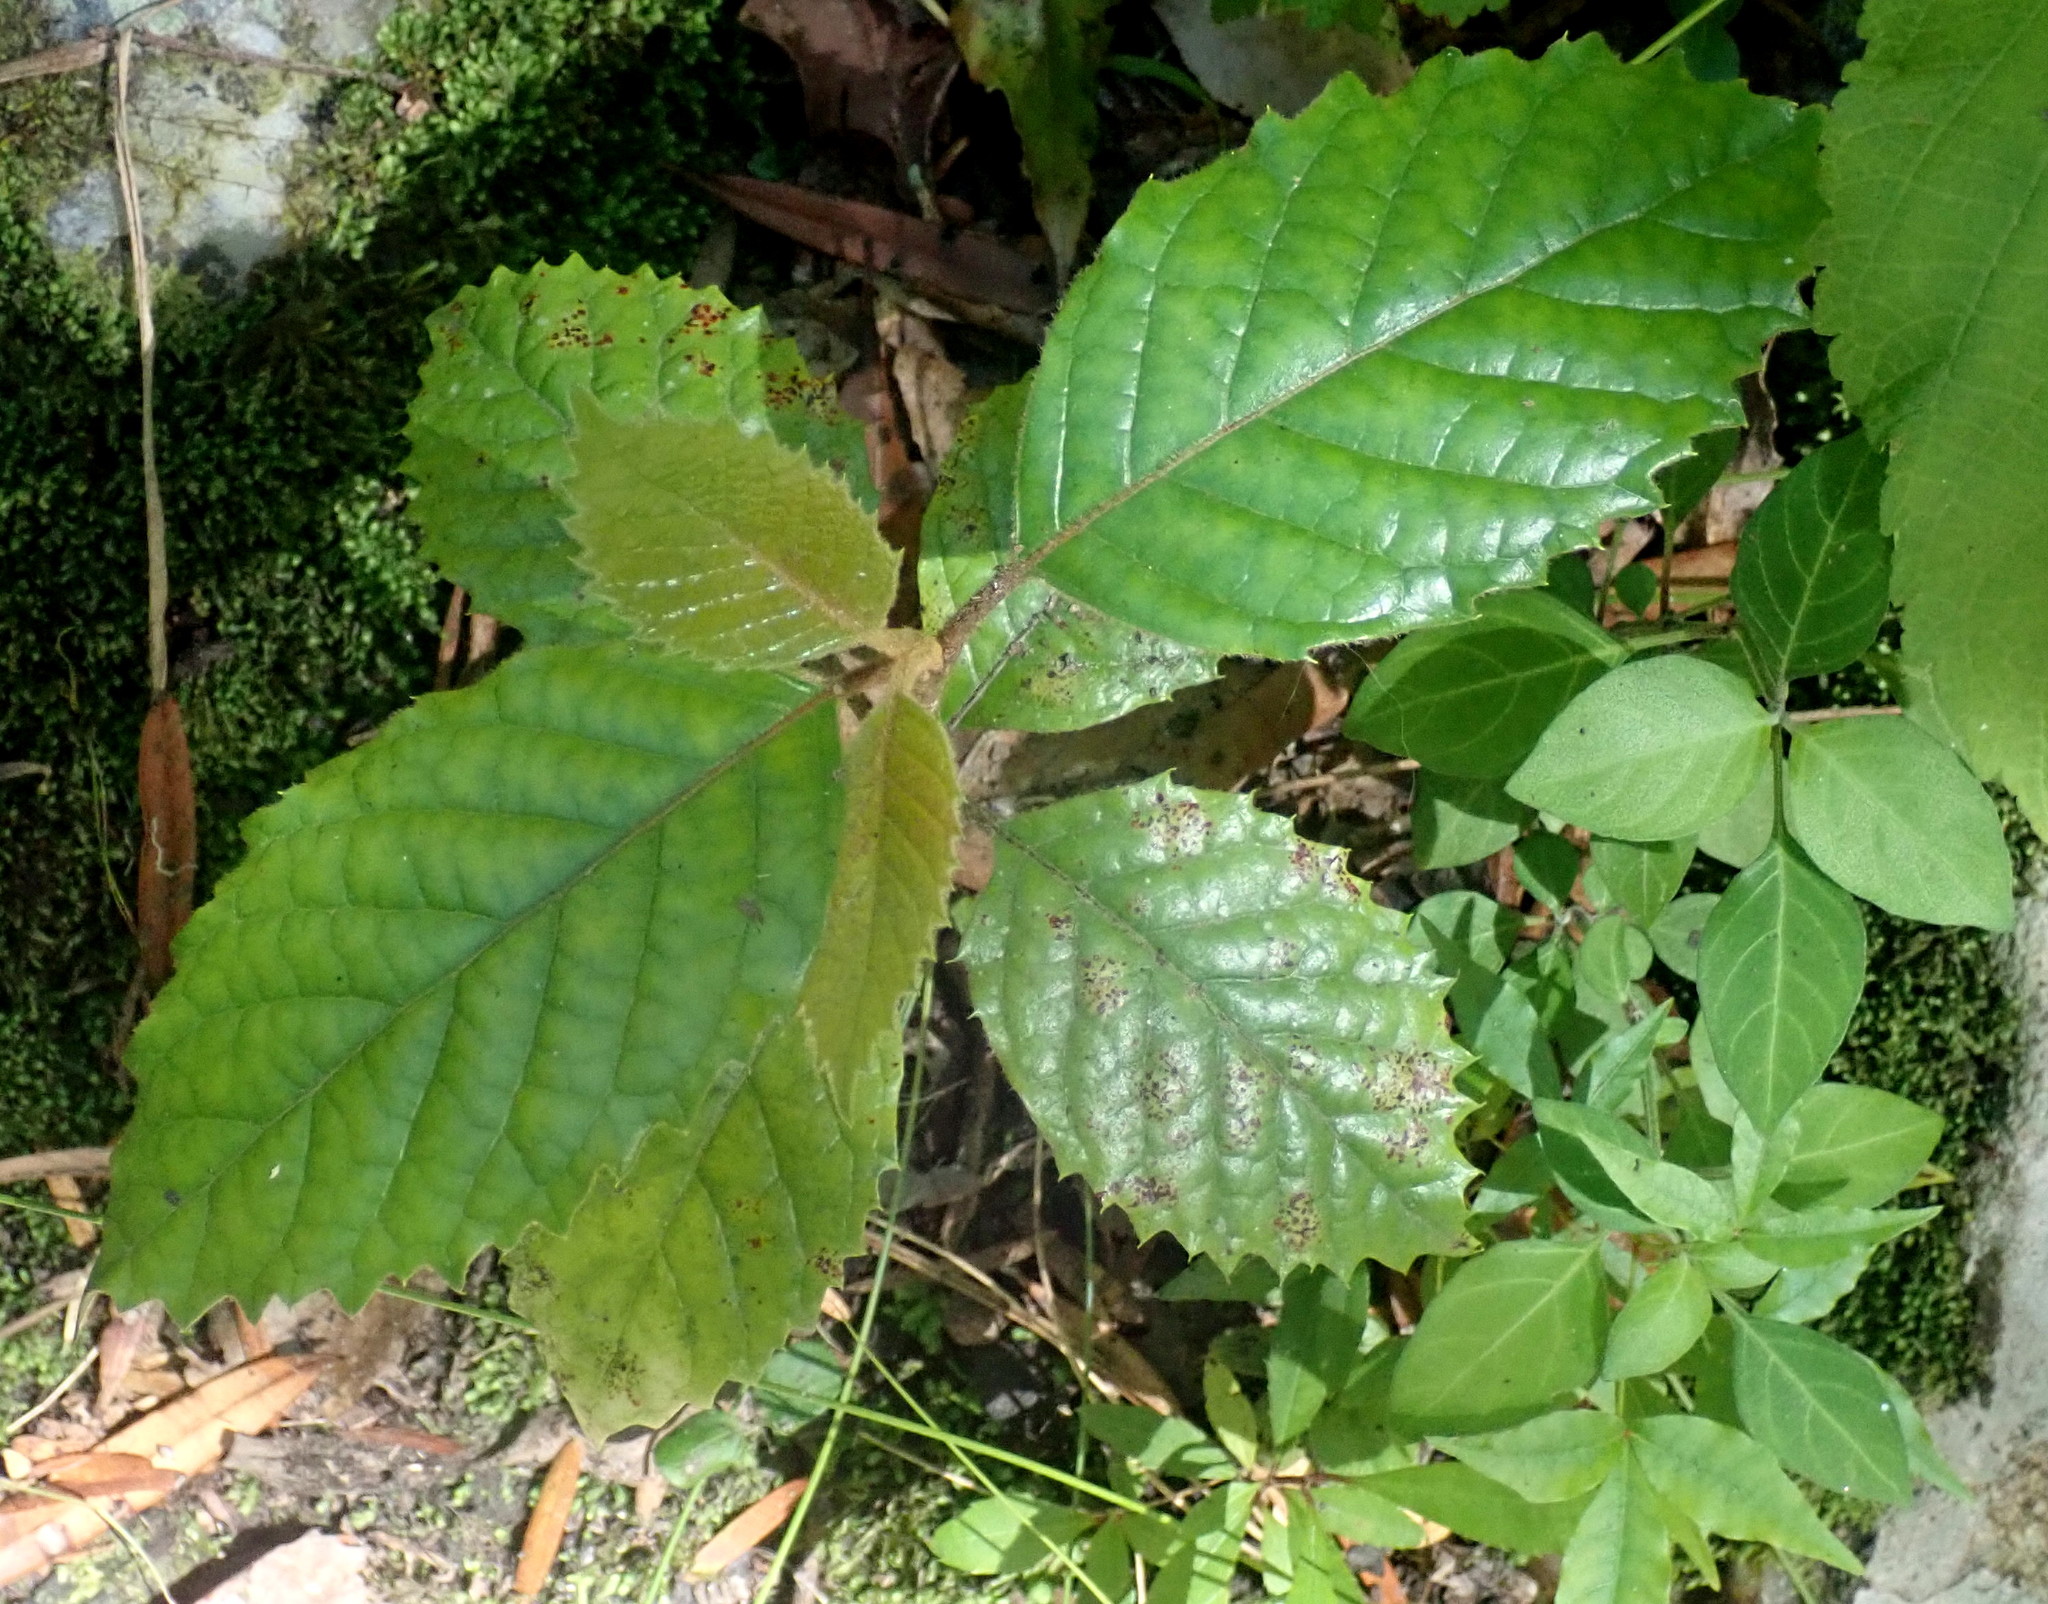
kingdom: Plantae
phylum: Tracheophyta
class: Magnoliopsida
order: Cornales
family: Curtisiaceae
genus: Curtisia
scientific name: Curtisia dentata
